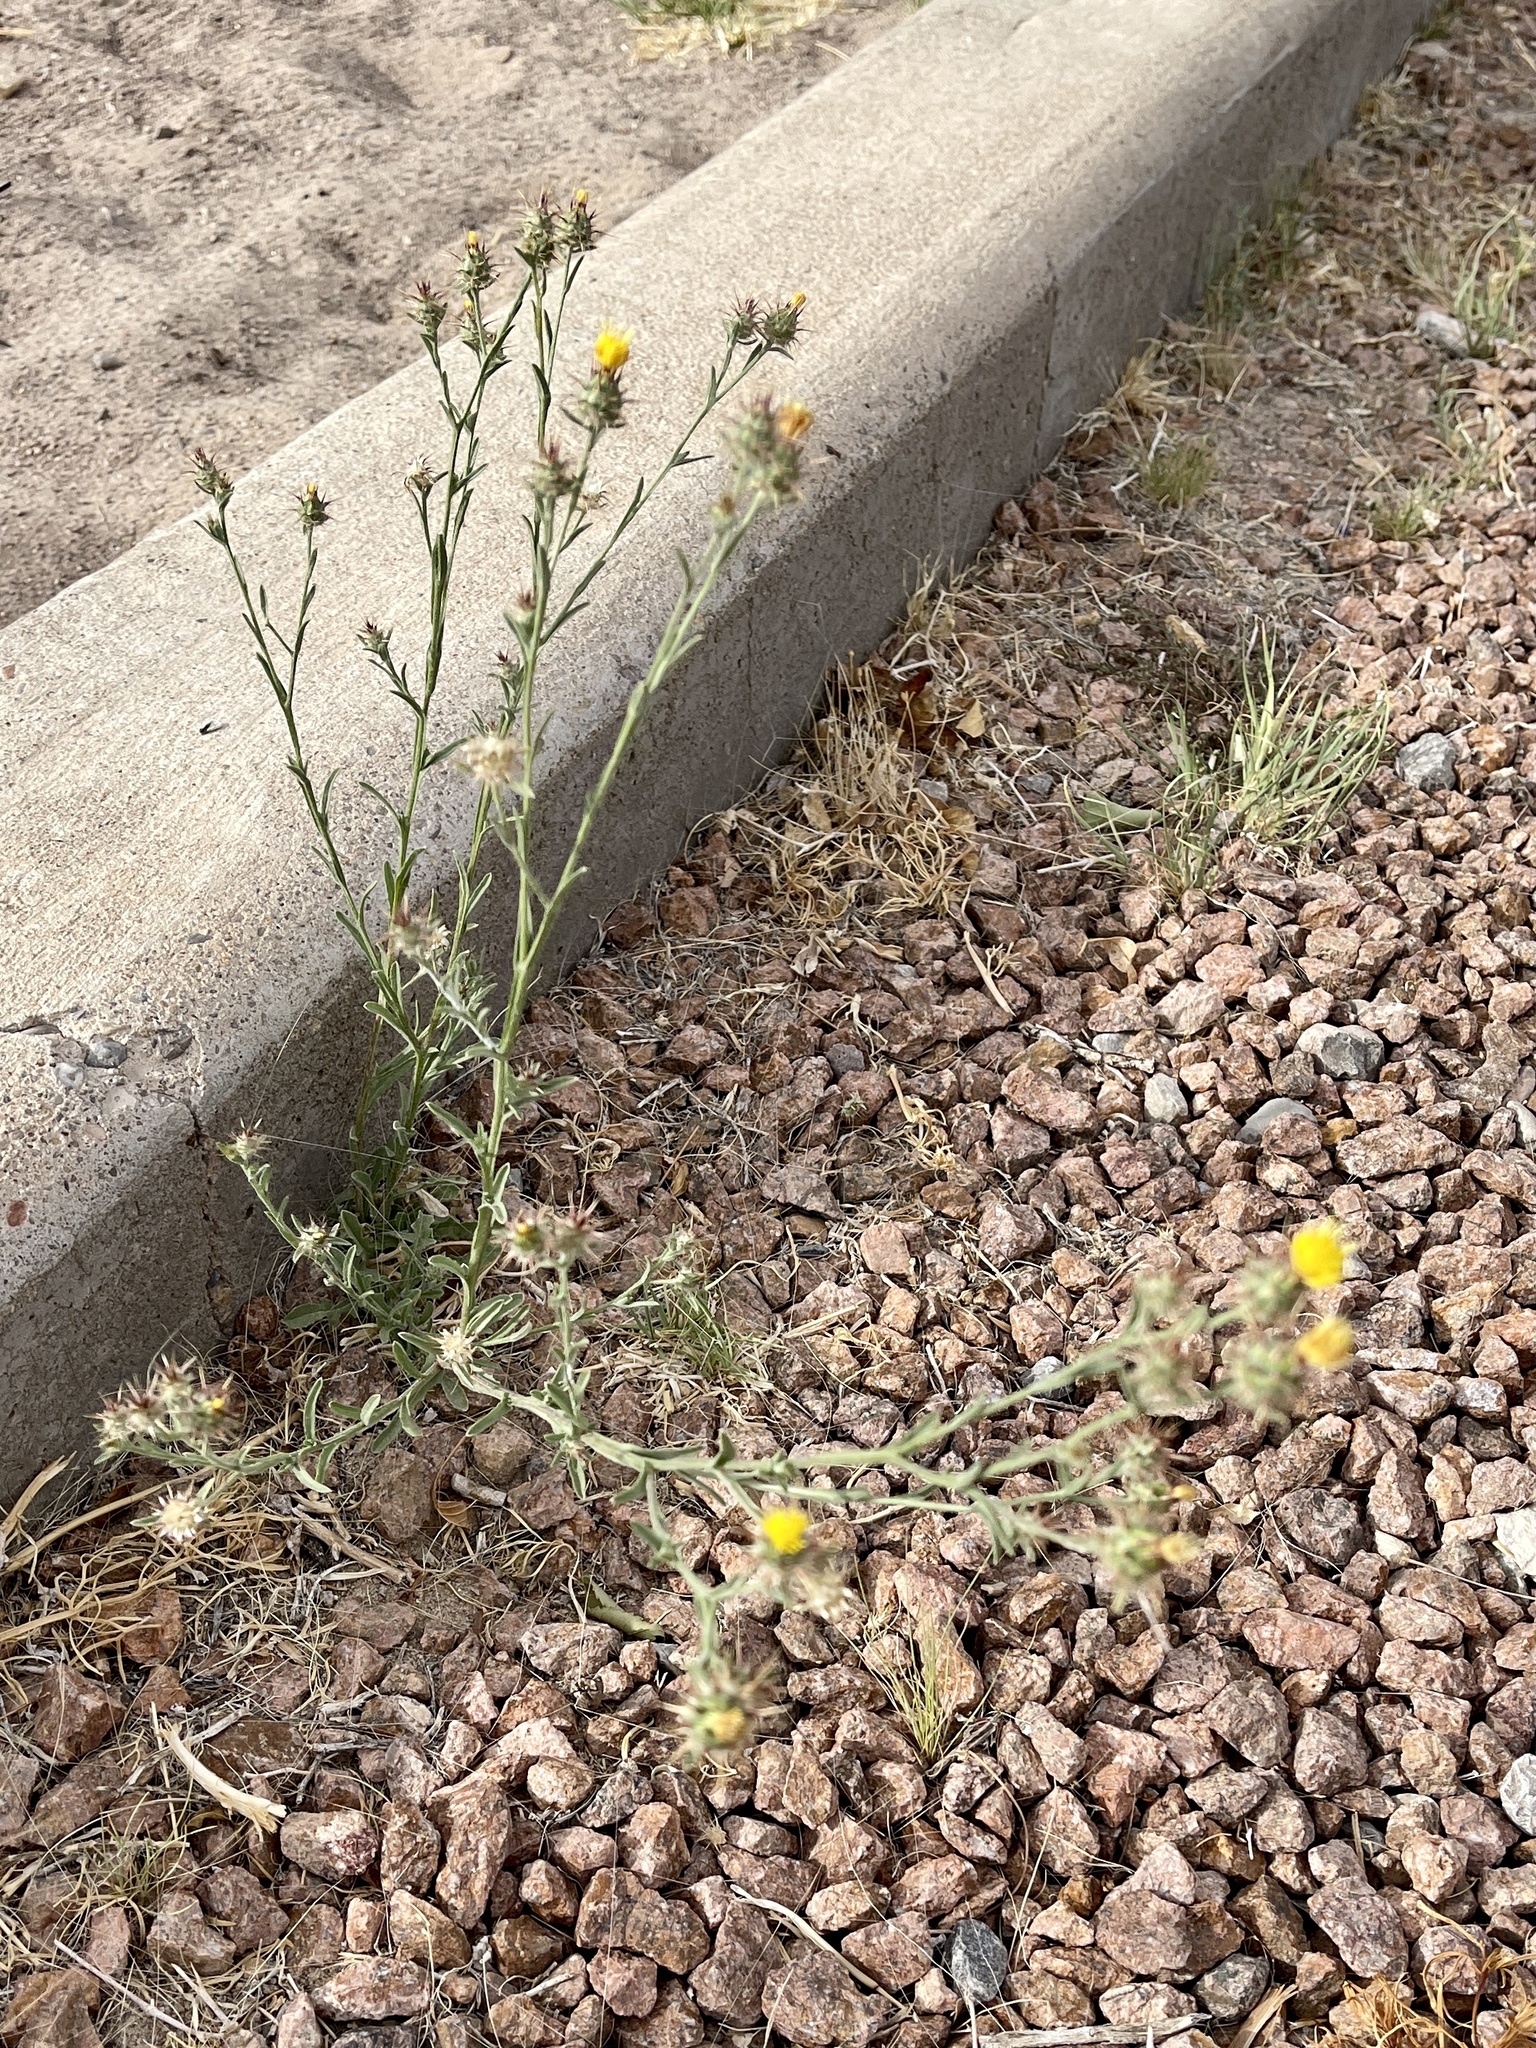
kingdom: Plantae
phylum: Tracheophyta
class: Magnoliopsida
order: Asterales
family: Asteraceae
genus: Centaurea
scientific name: Centaurea melitensis
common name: Maltese star-thistle
